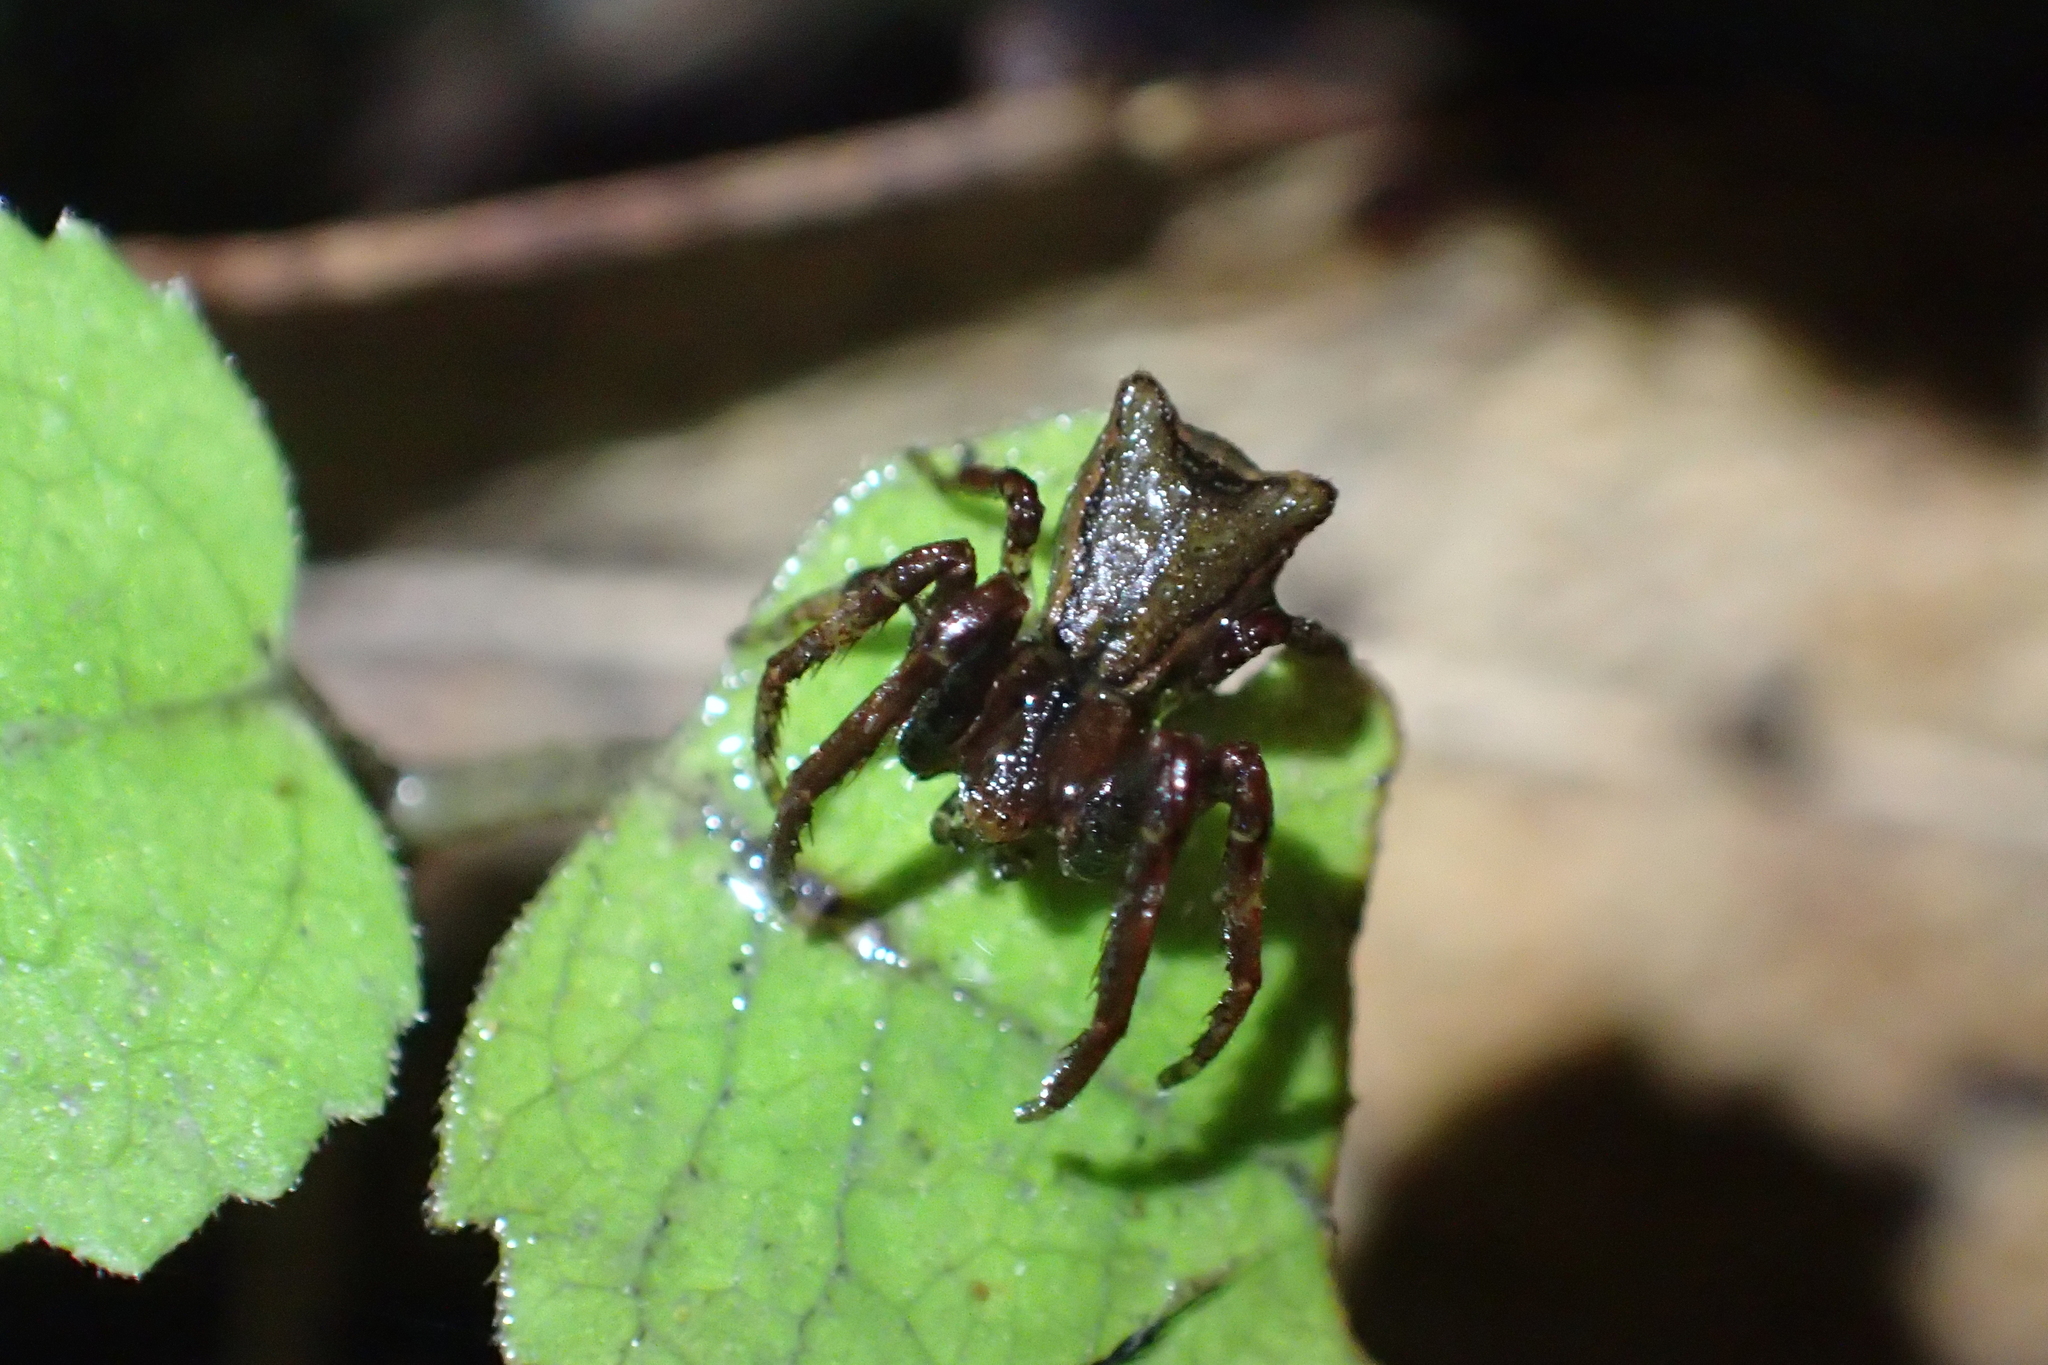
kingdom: Animalia
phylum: Arthropoda
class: Arachnida
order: Araneae
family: Thomisidae
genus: Sidymella
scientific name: Sidymella angularis
